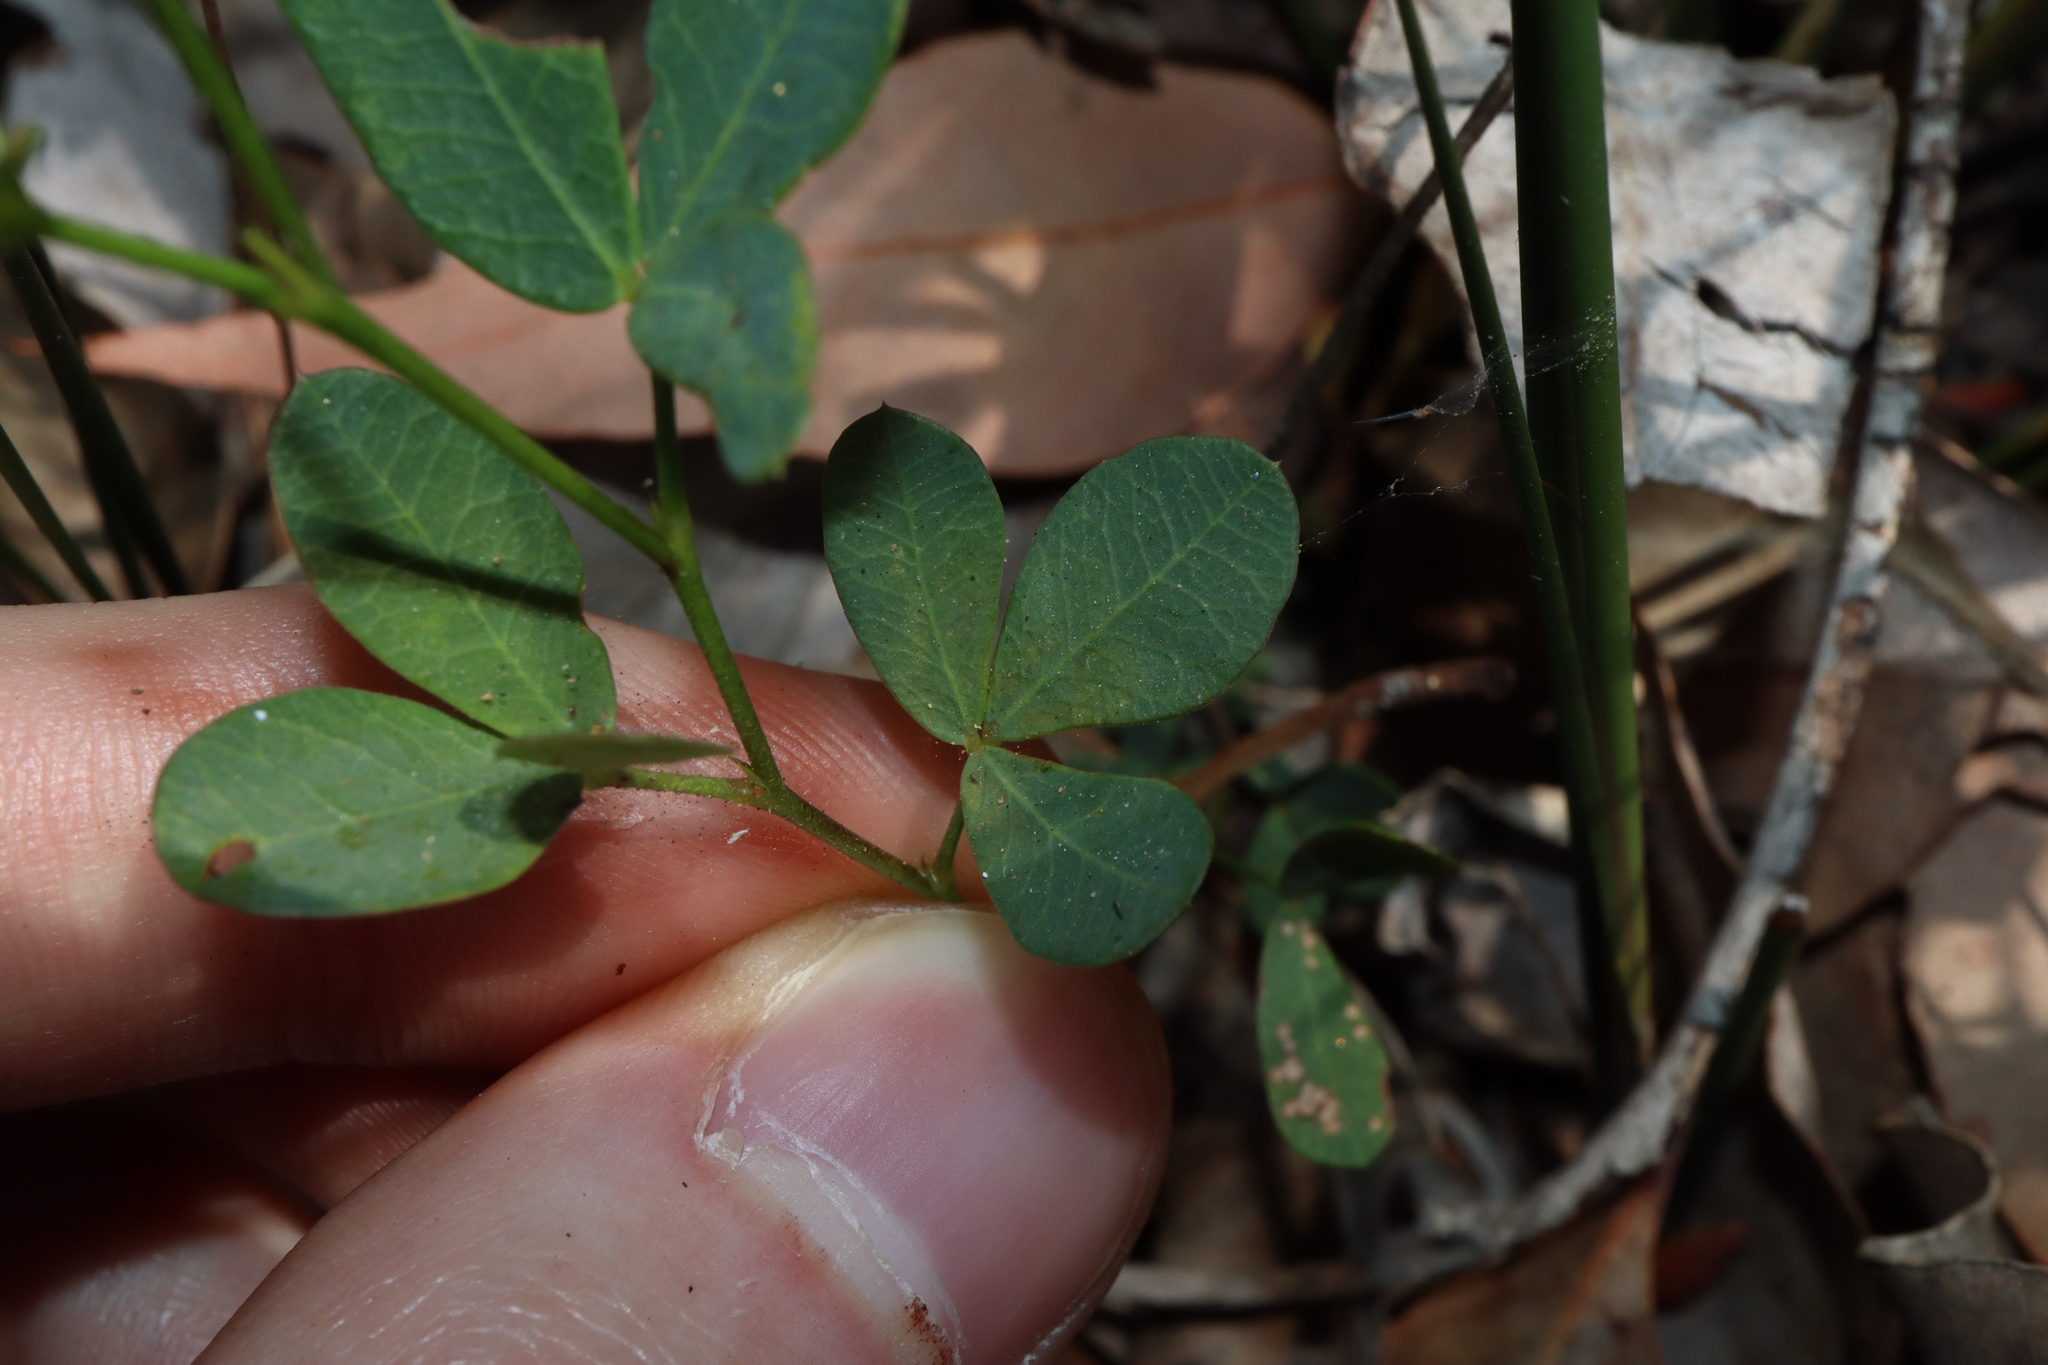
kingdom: Plantae
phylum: Tracheophyta
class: Magnoliopsida
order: Fabales
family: Fabaceae
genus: Gompholobium
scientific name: Gompholobium knightianum
